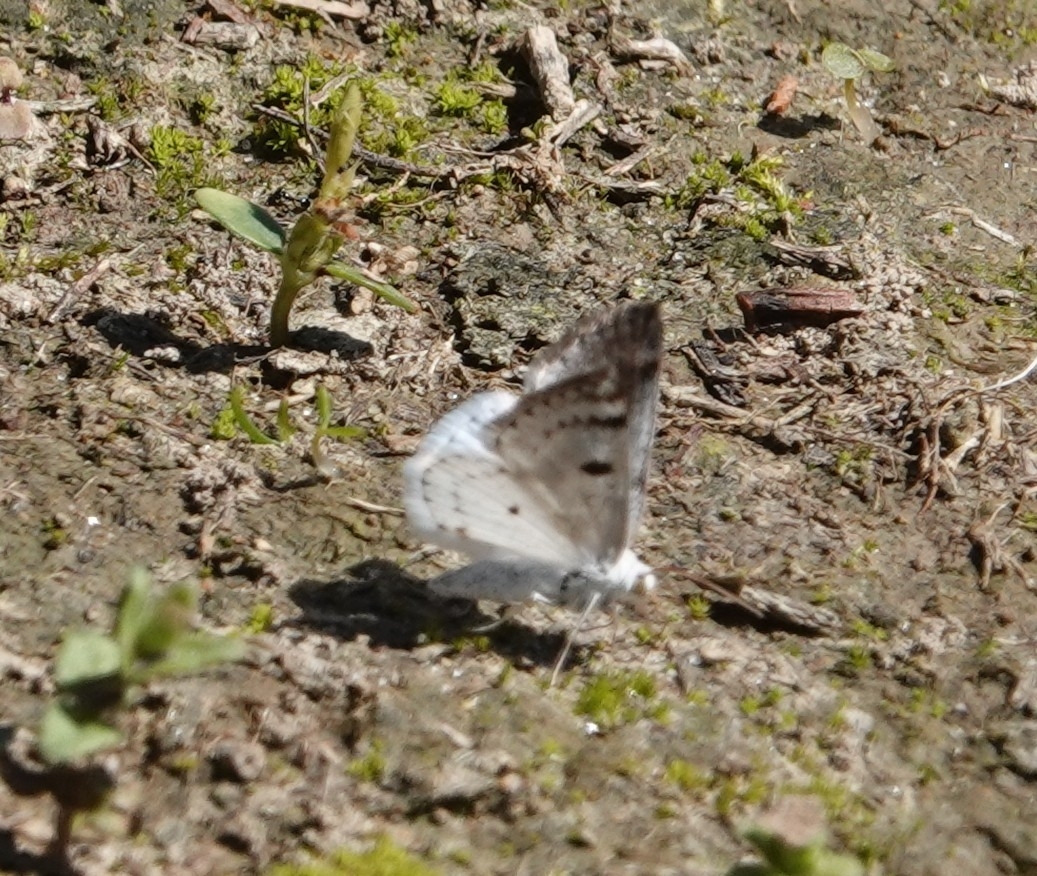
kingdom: Animalia
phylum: Arthropoda
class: Insecta
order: Lepidoptera
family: Geometridae
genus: Lomographa
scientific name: Lomographa semiclarata
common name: Bluish spring moth
